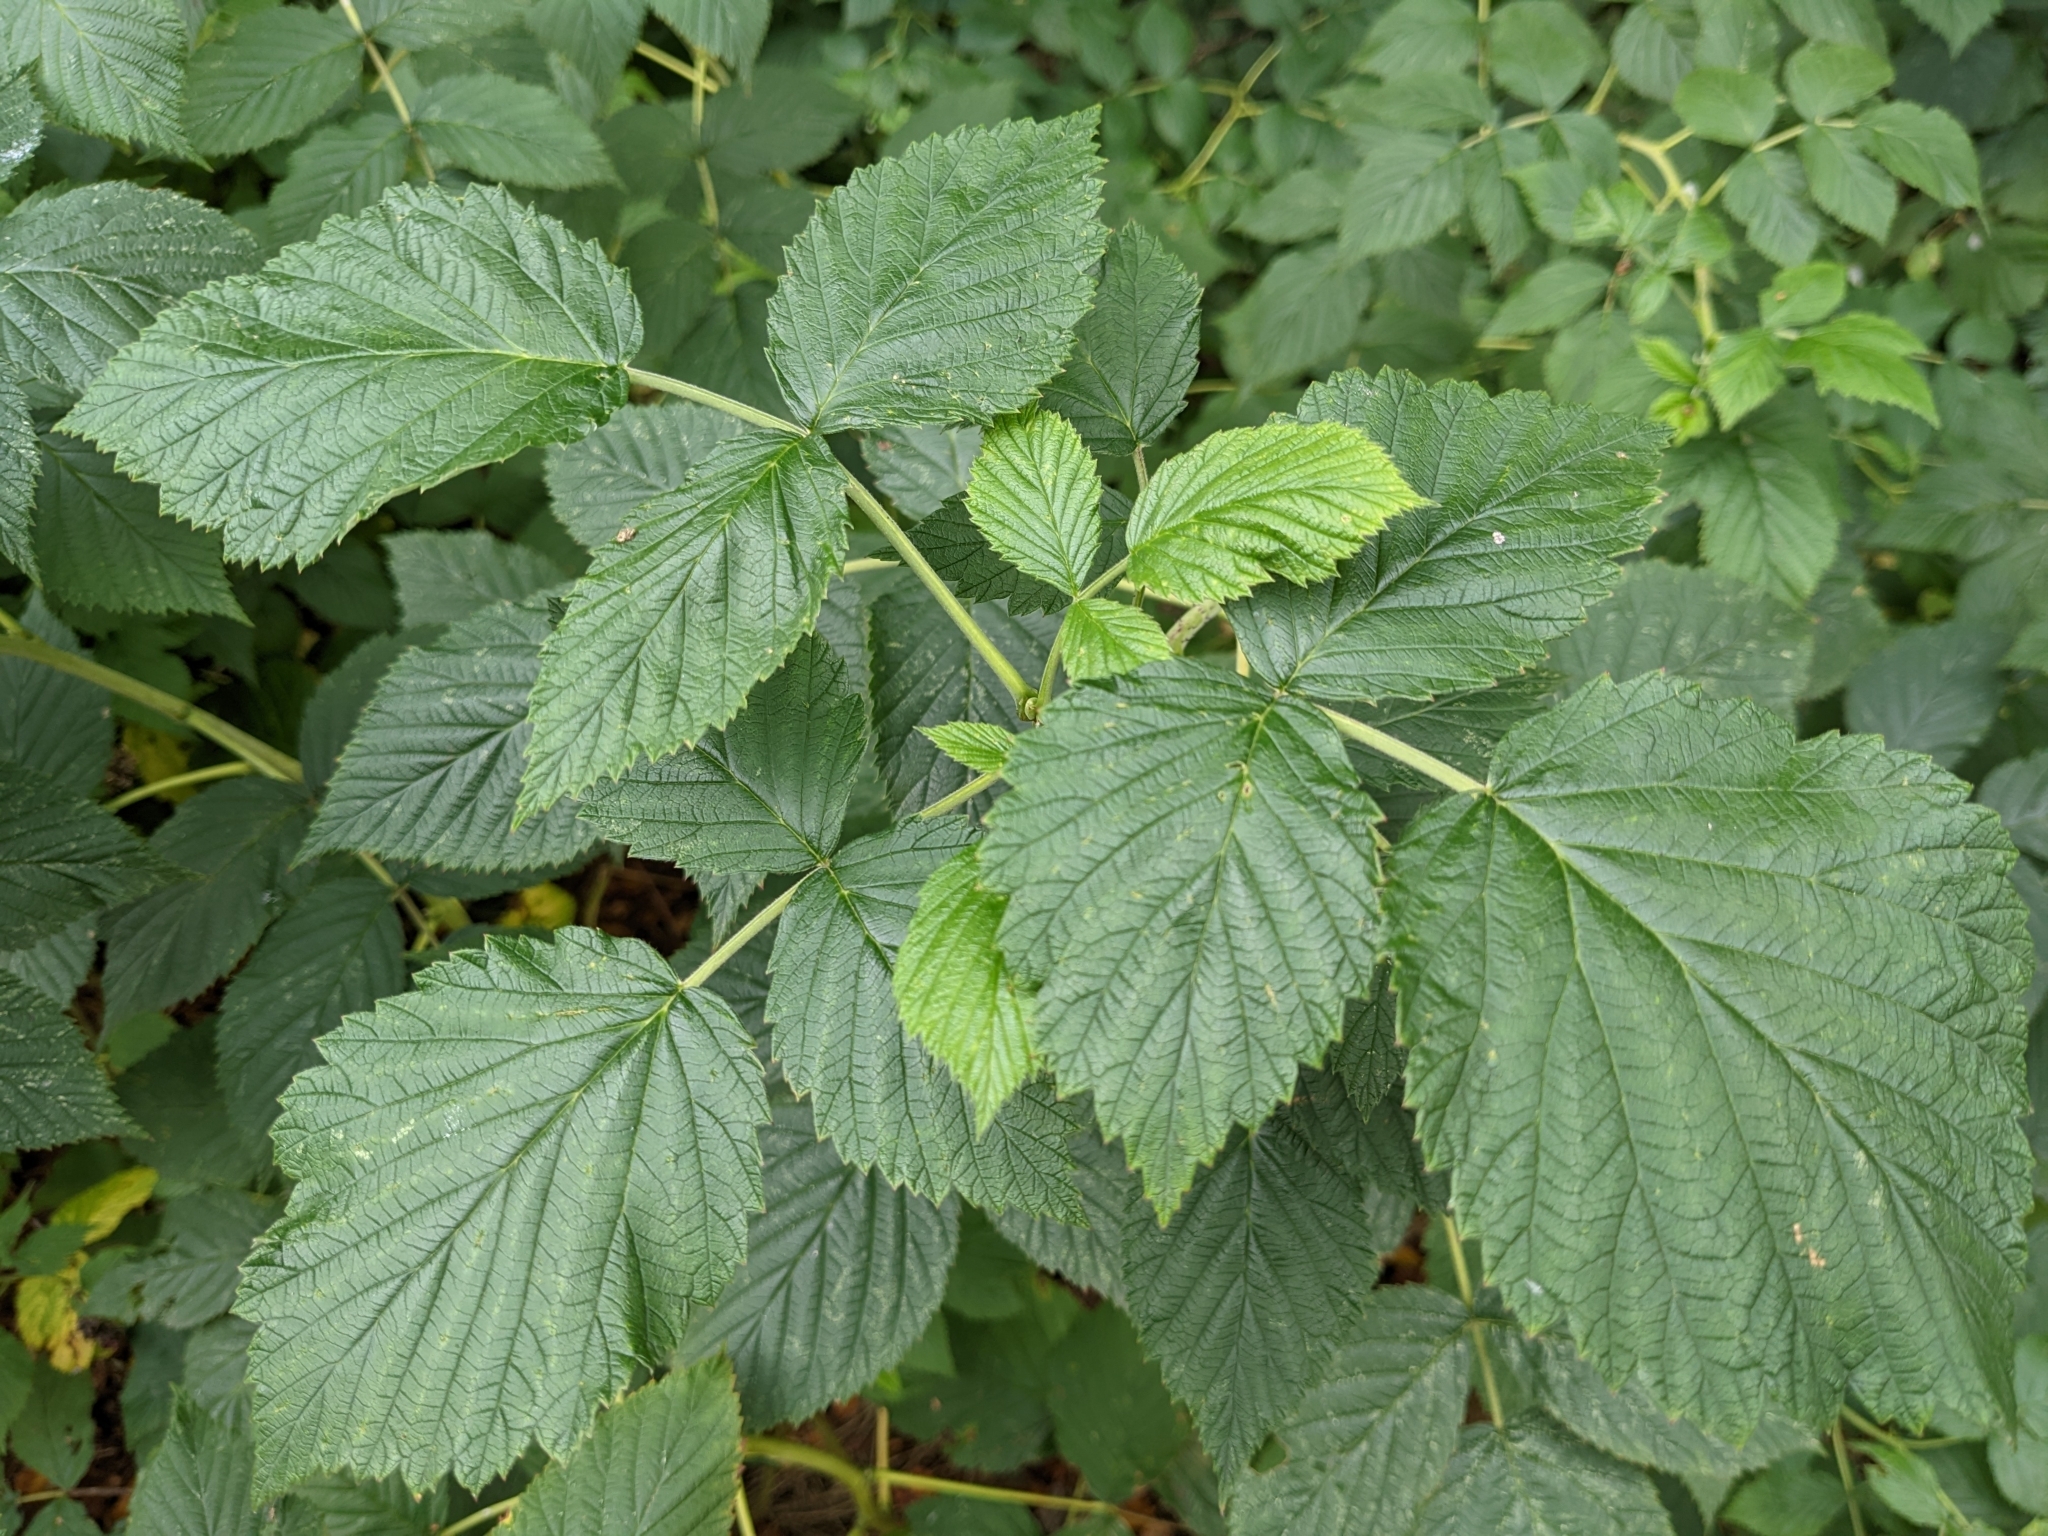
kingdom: Plantae
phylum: Tracheophyta
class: Magnoliopsida
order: Rosales
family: Rosaceae
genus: Rubus
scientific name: Rubus idaeus
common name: Raspberry
